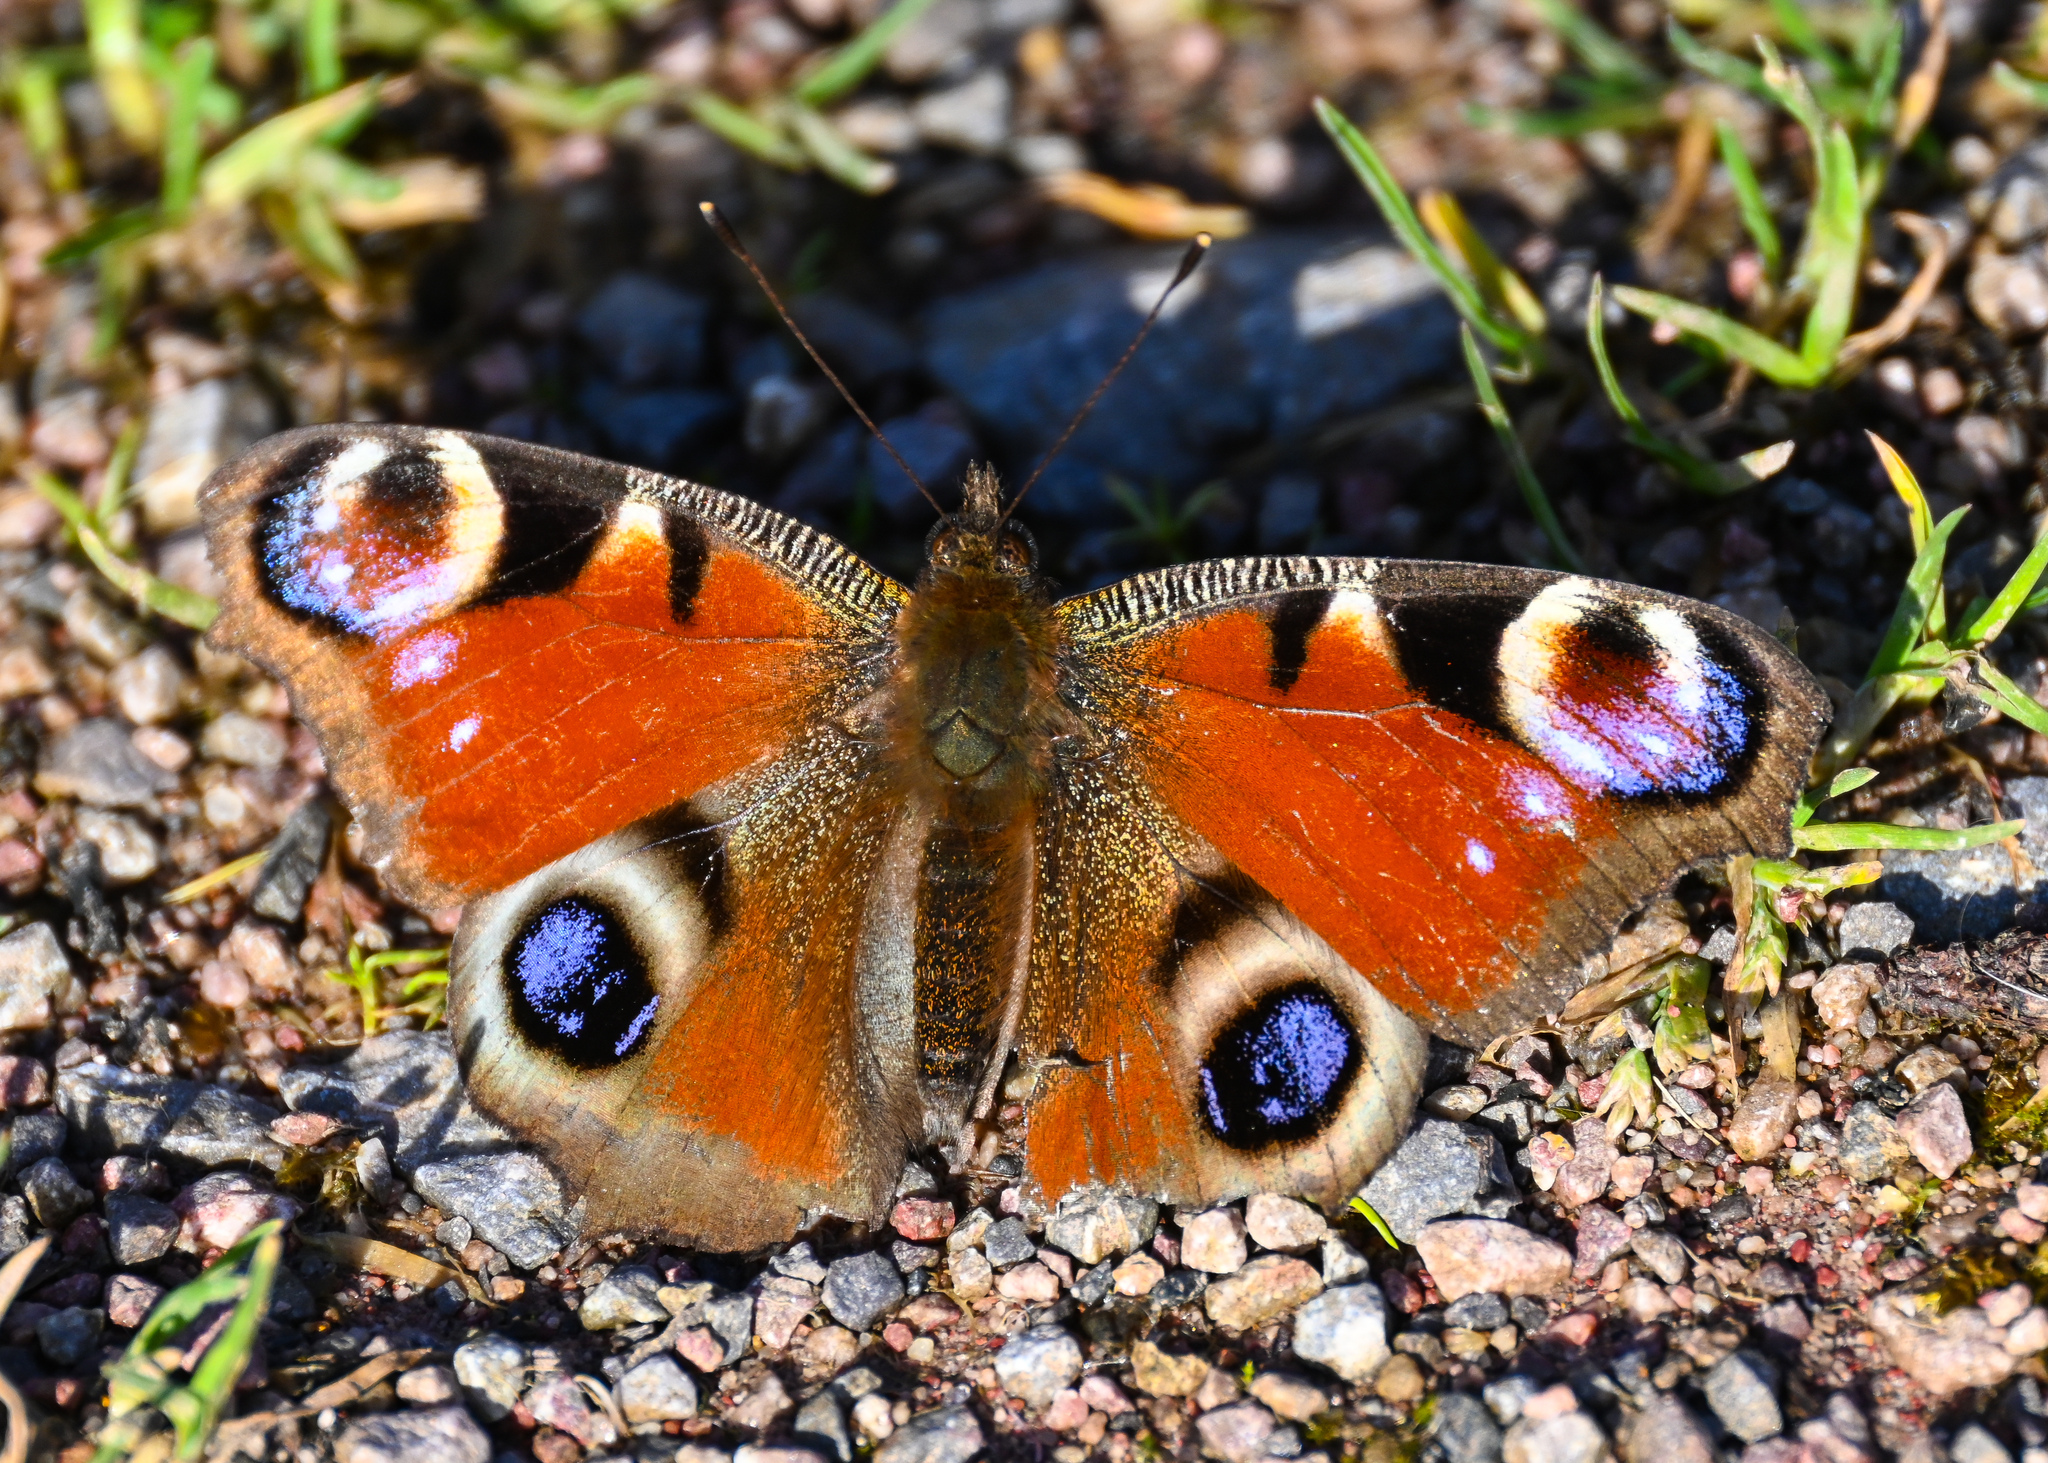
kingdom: Animalia
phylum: Arthropoda
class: Insecta
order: Lepidoptera
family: Nymphalidae
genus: Aglais
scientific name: Aglais io
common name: Peacock
